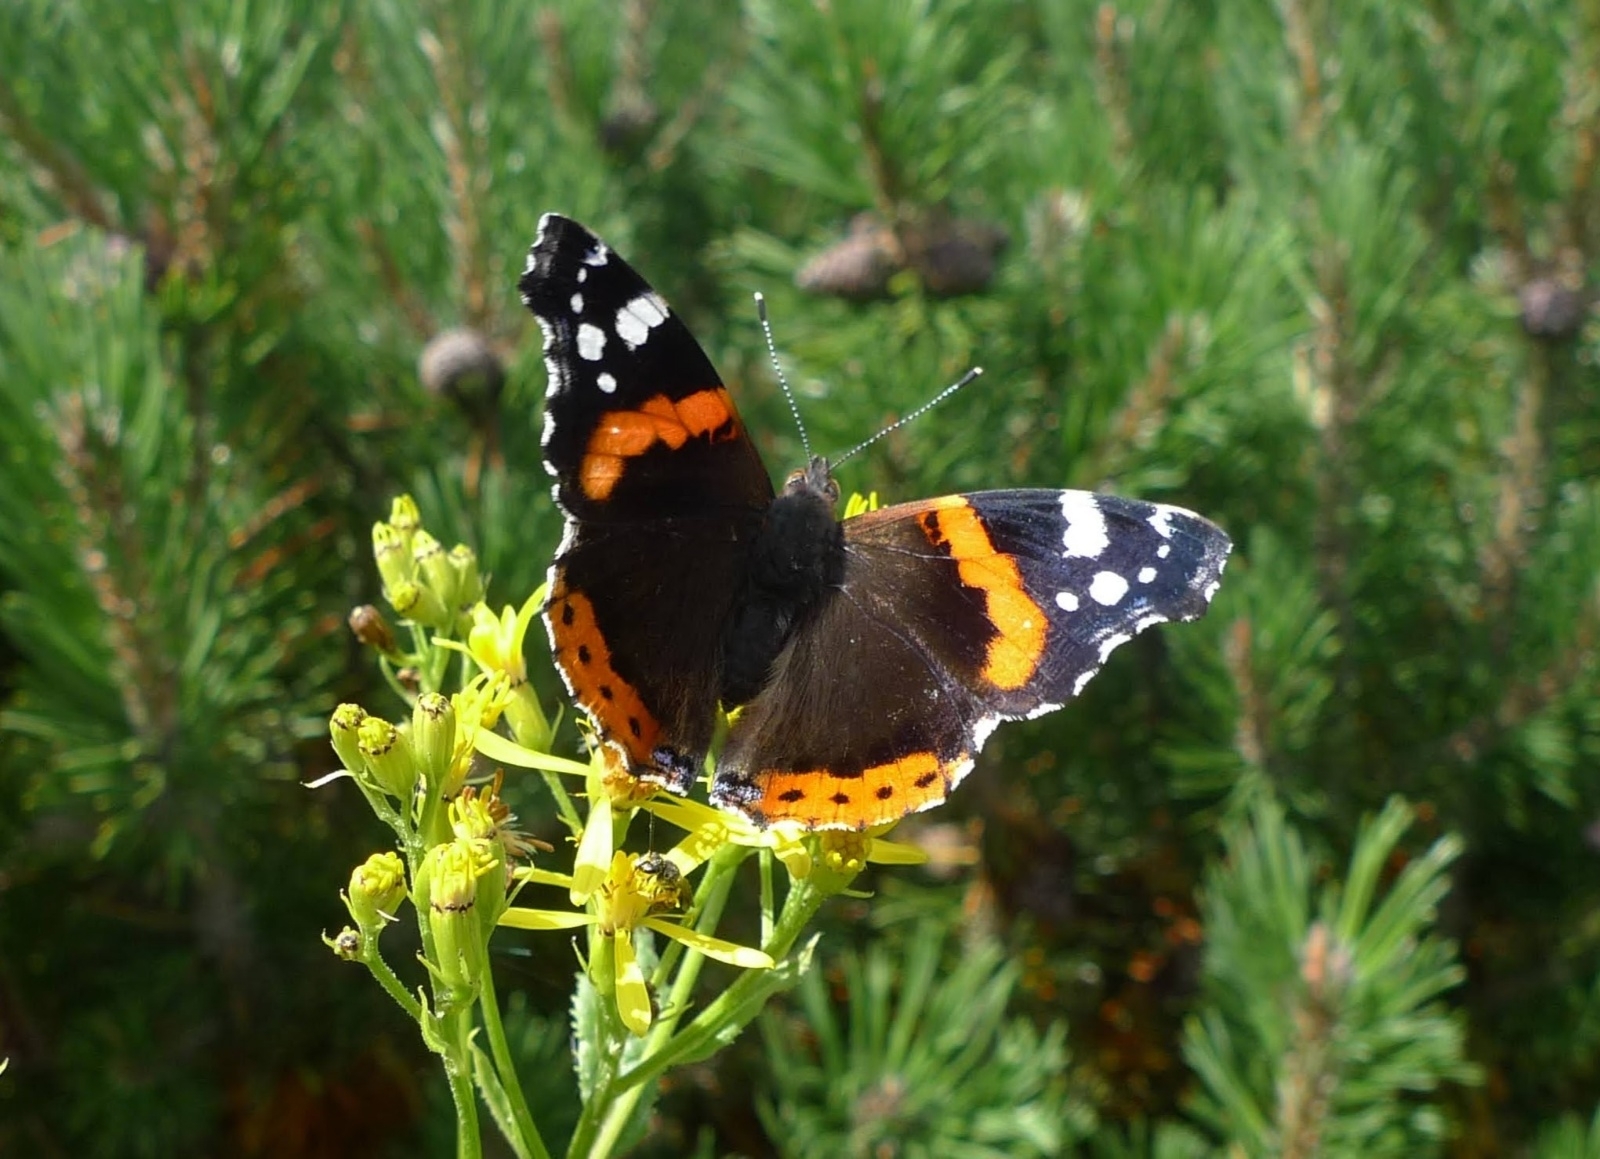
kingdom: Animalia
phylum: Arthropoda
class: Insecta
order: Lepidoptera
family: Nymphalidae
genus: Vanessa
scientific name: Vanessa atalanta
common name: Red admiral
